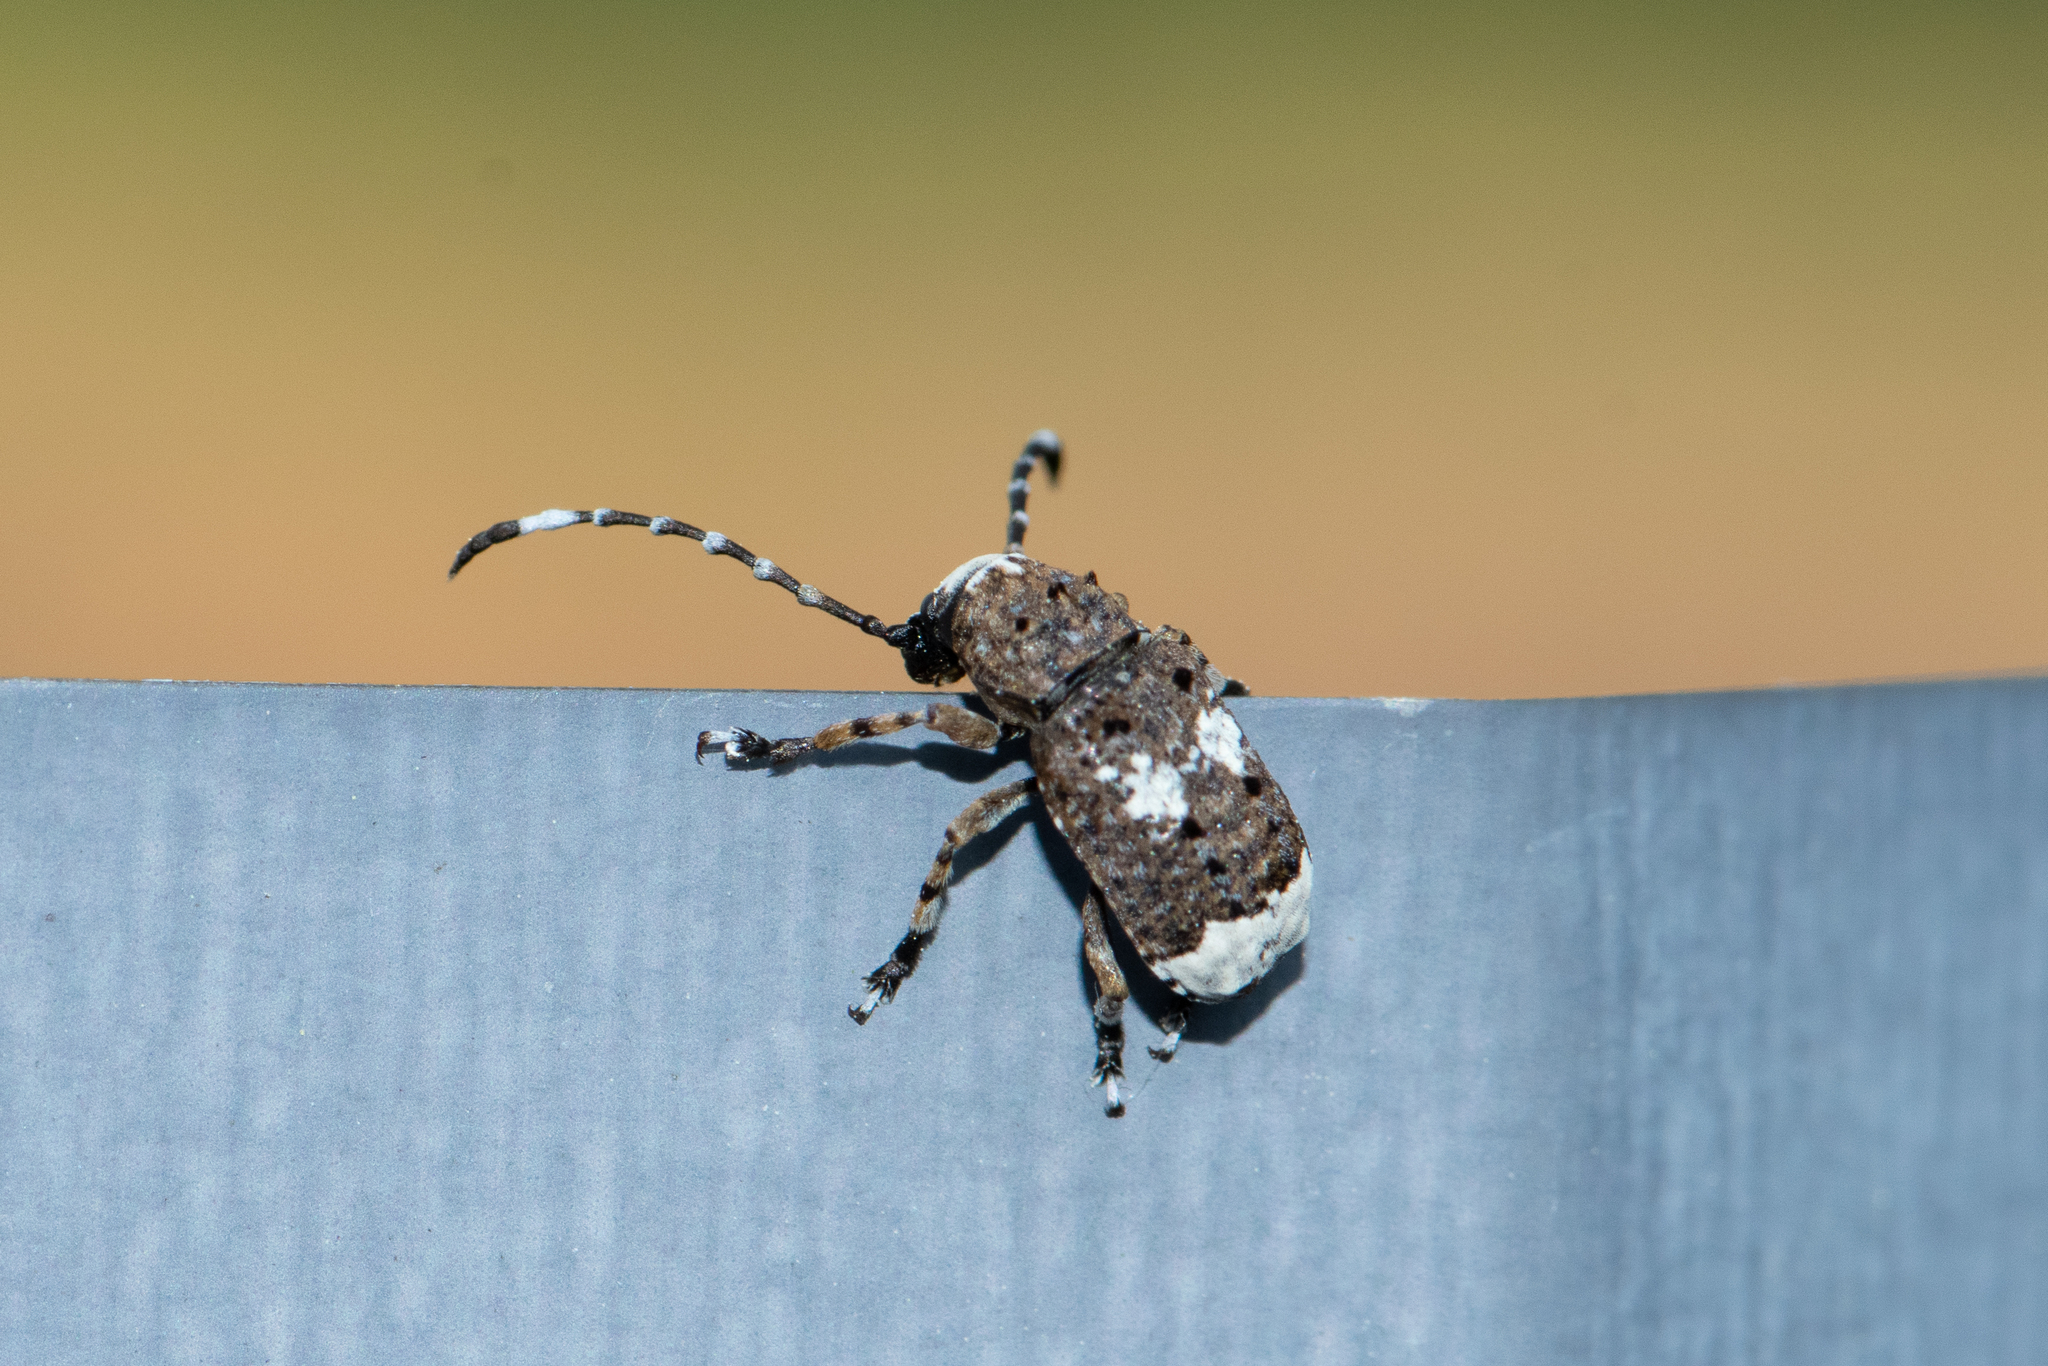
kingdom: Animalia
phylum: Arthropoda
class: Insecta
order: Coleoptera
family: Anthribidae
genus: Platystomos
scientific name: Platystomos albinus
